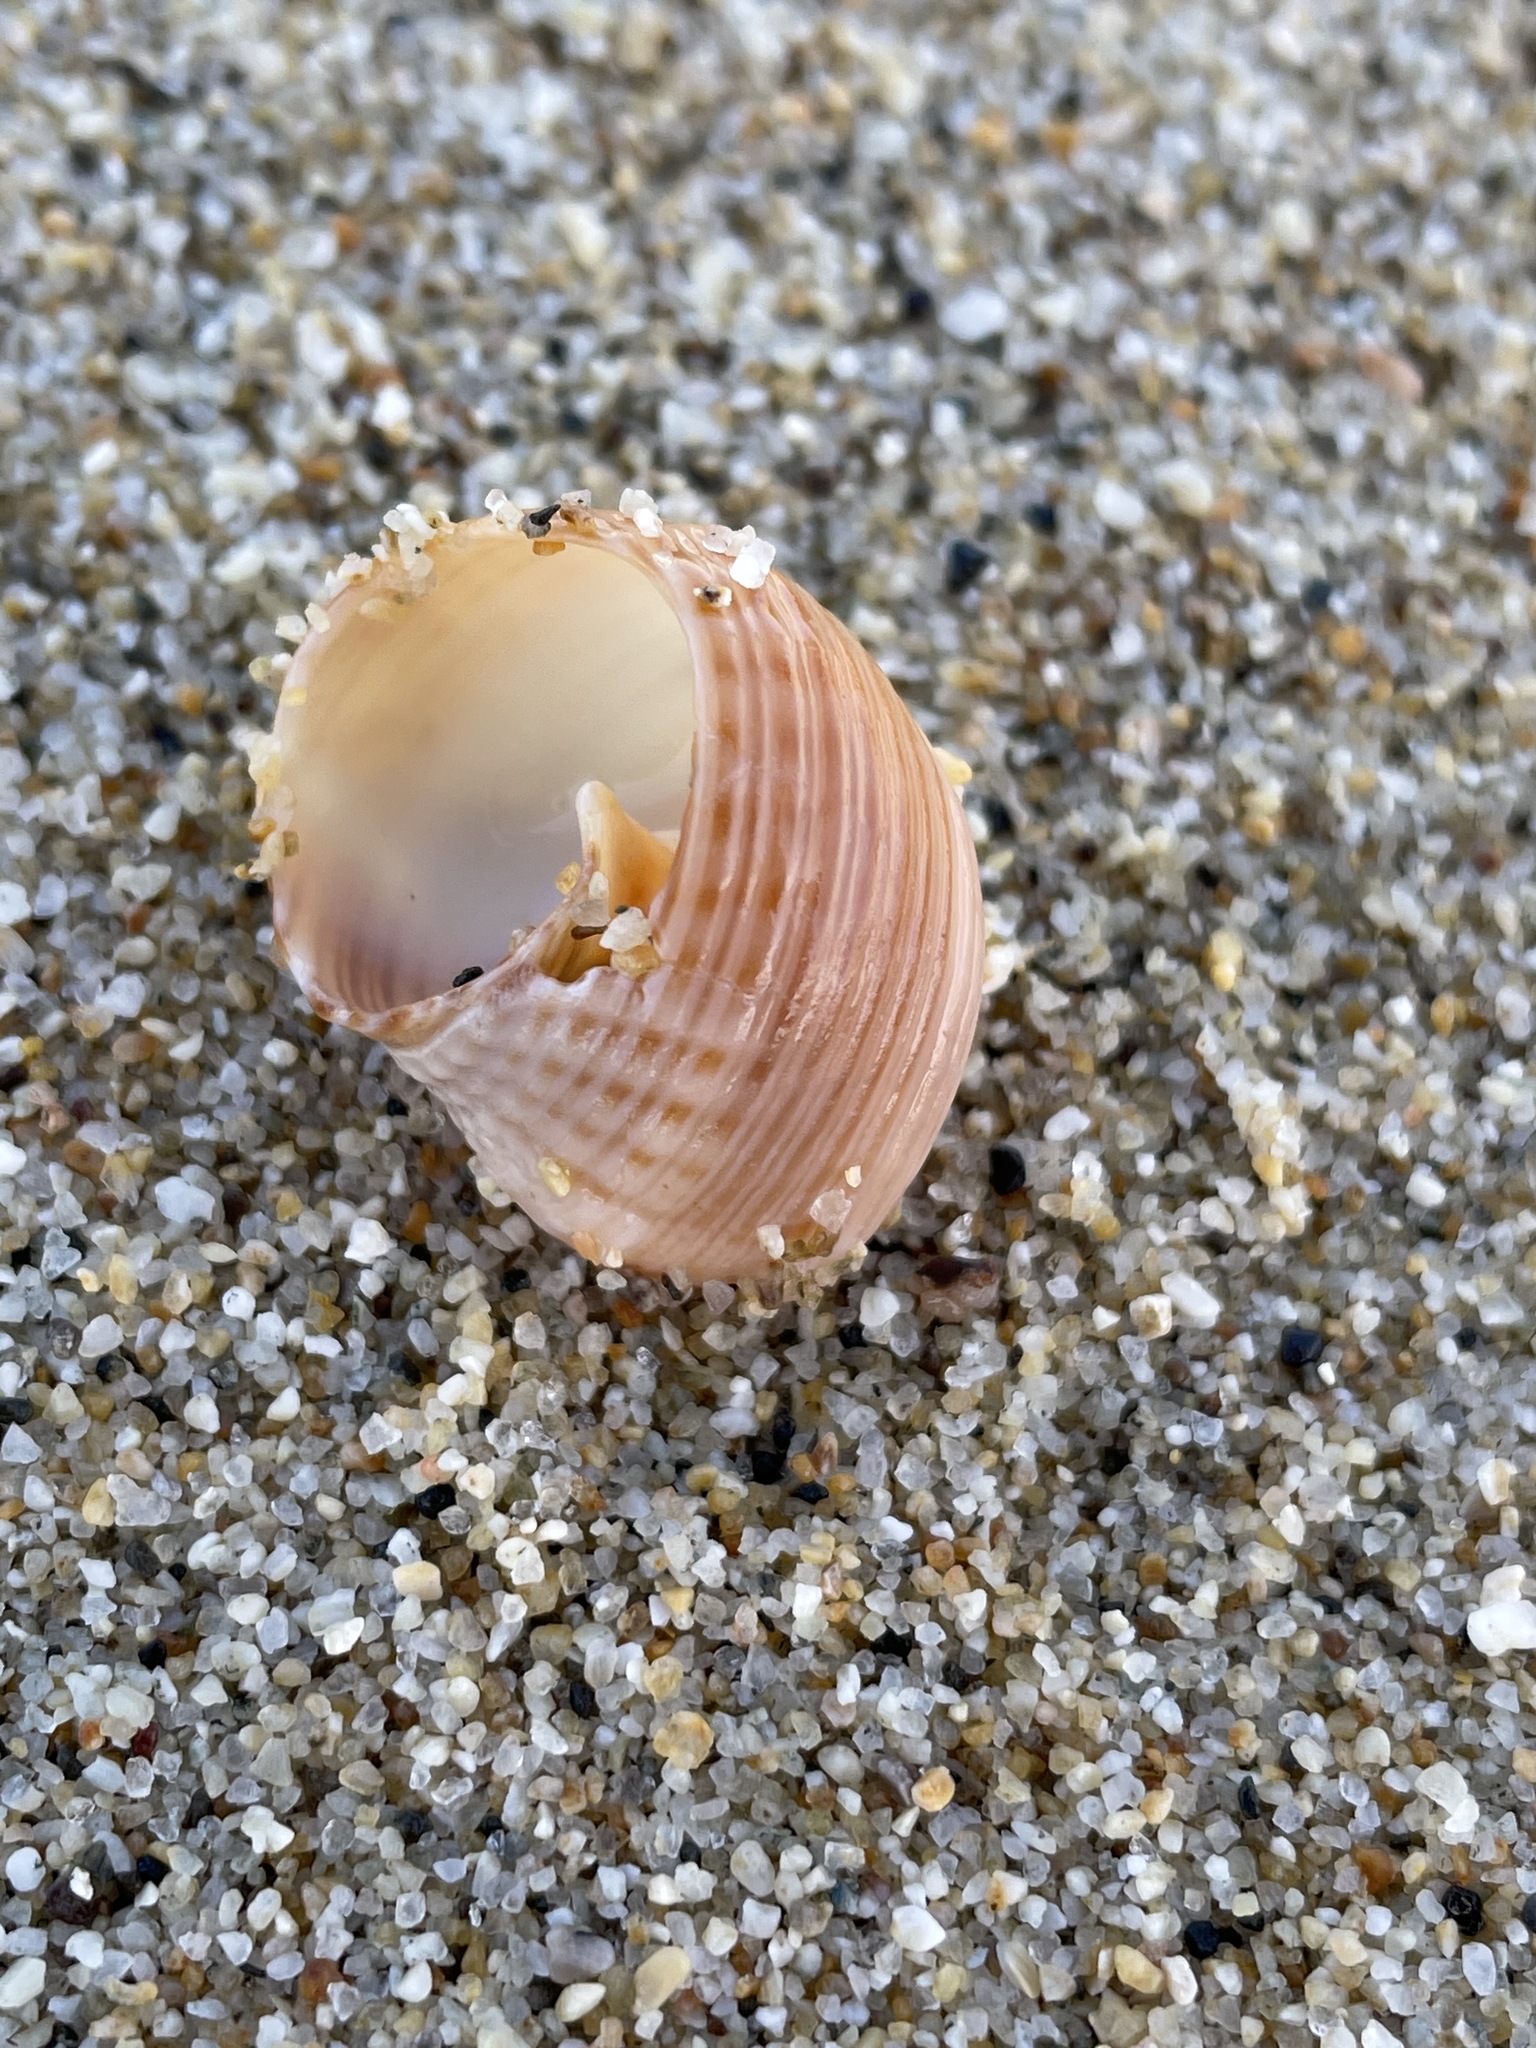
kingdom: Animalia
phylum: Mollusca
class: Gastropoda
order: Neogastropoda
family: Nassariidae
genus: Caesia
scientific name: Caesia fossata
